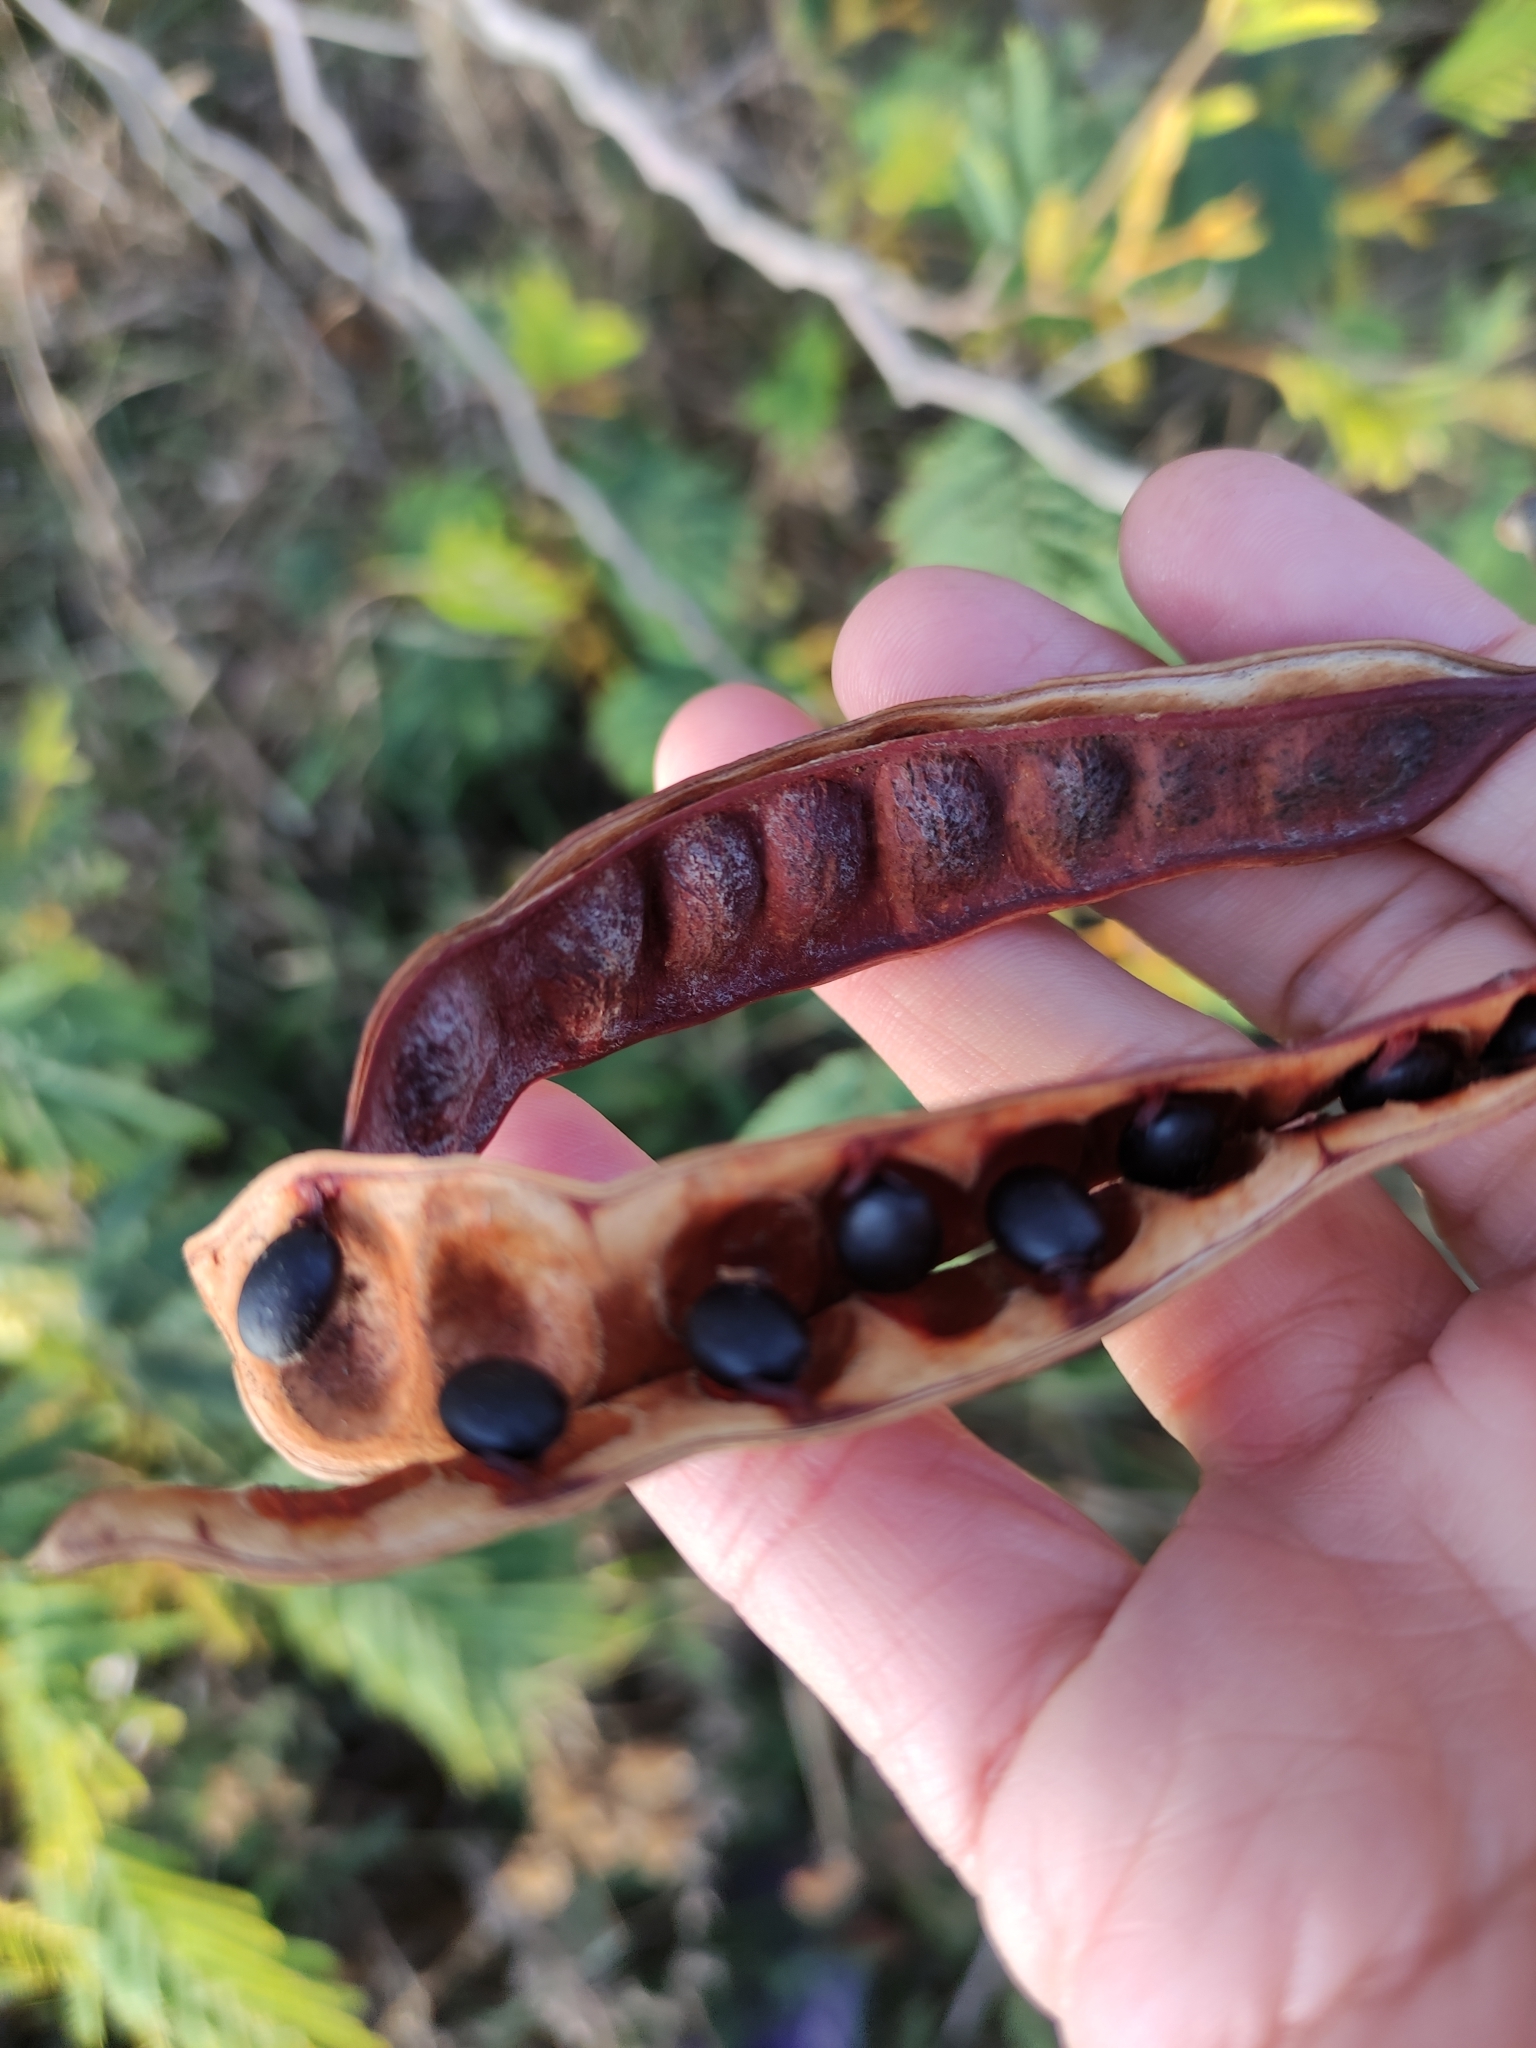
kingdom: Plantae
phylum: Tracheophyta
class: Magnoliopsida
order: Fabales
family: Fabaceae
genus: Paraserianthes
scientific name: Paraserianthes lophantha
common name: Plume albizia
